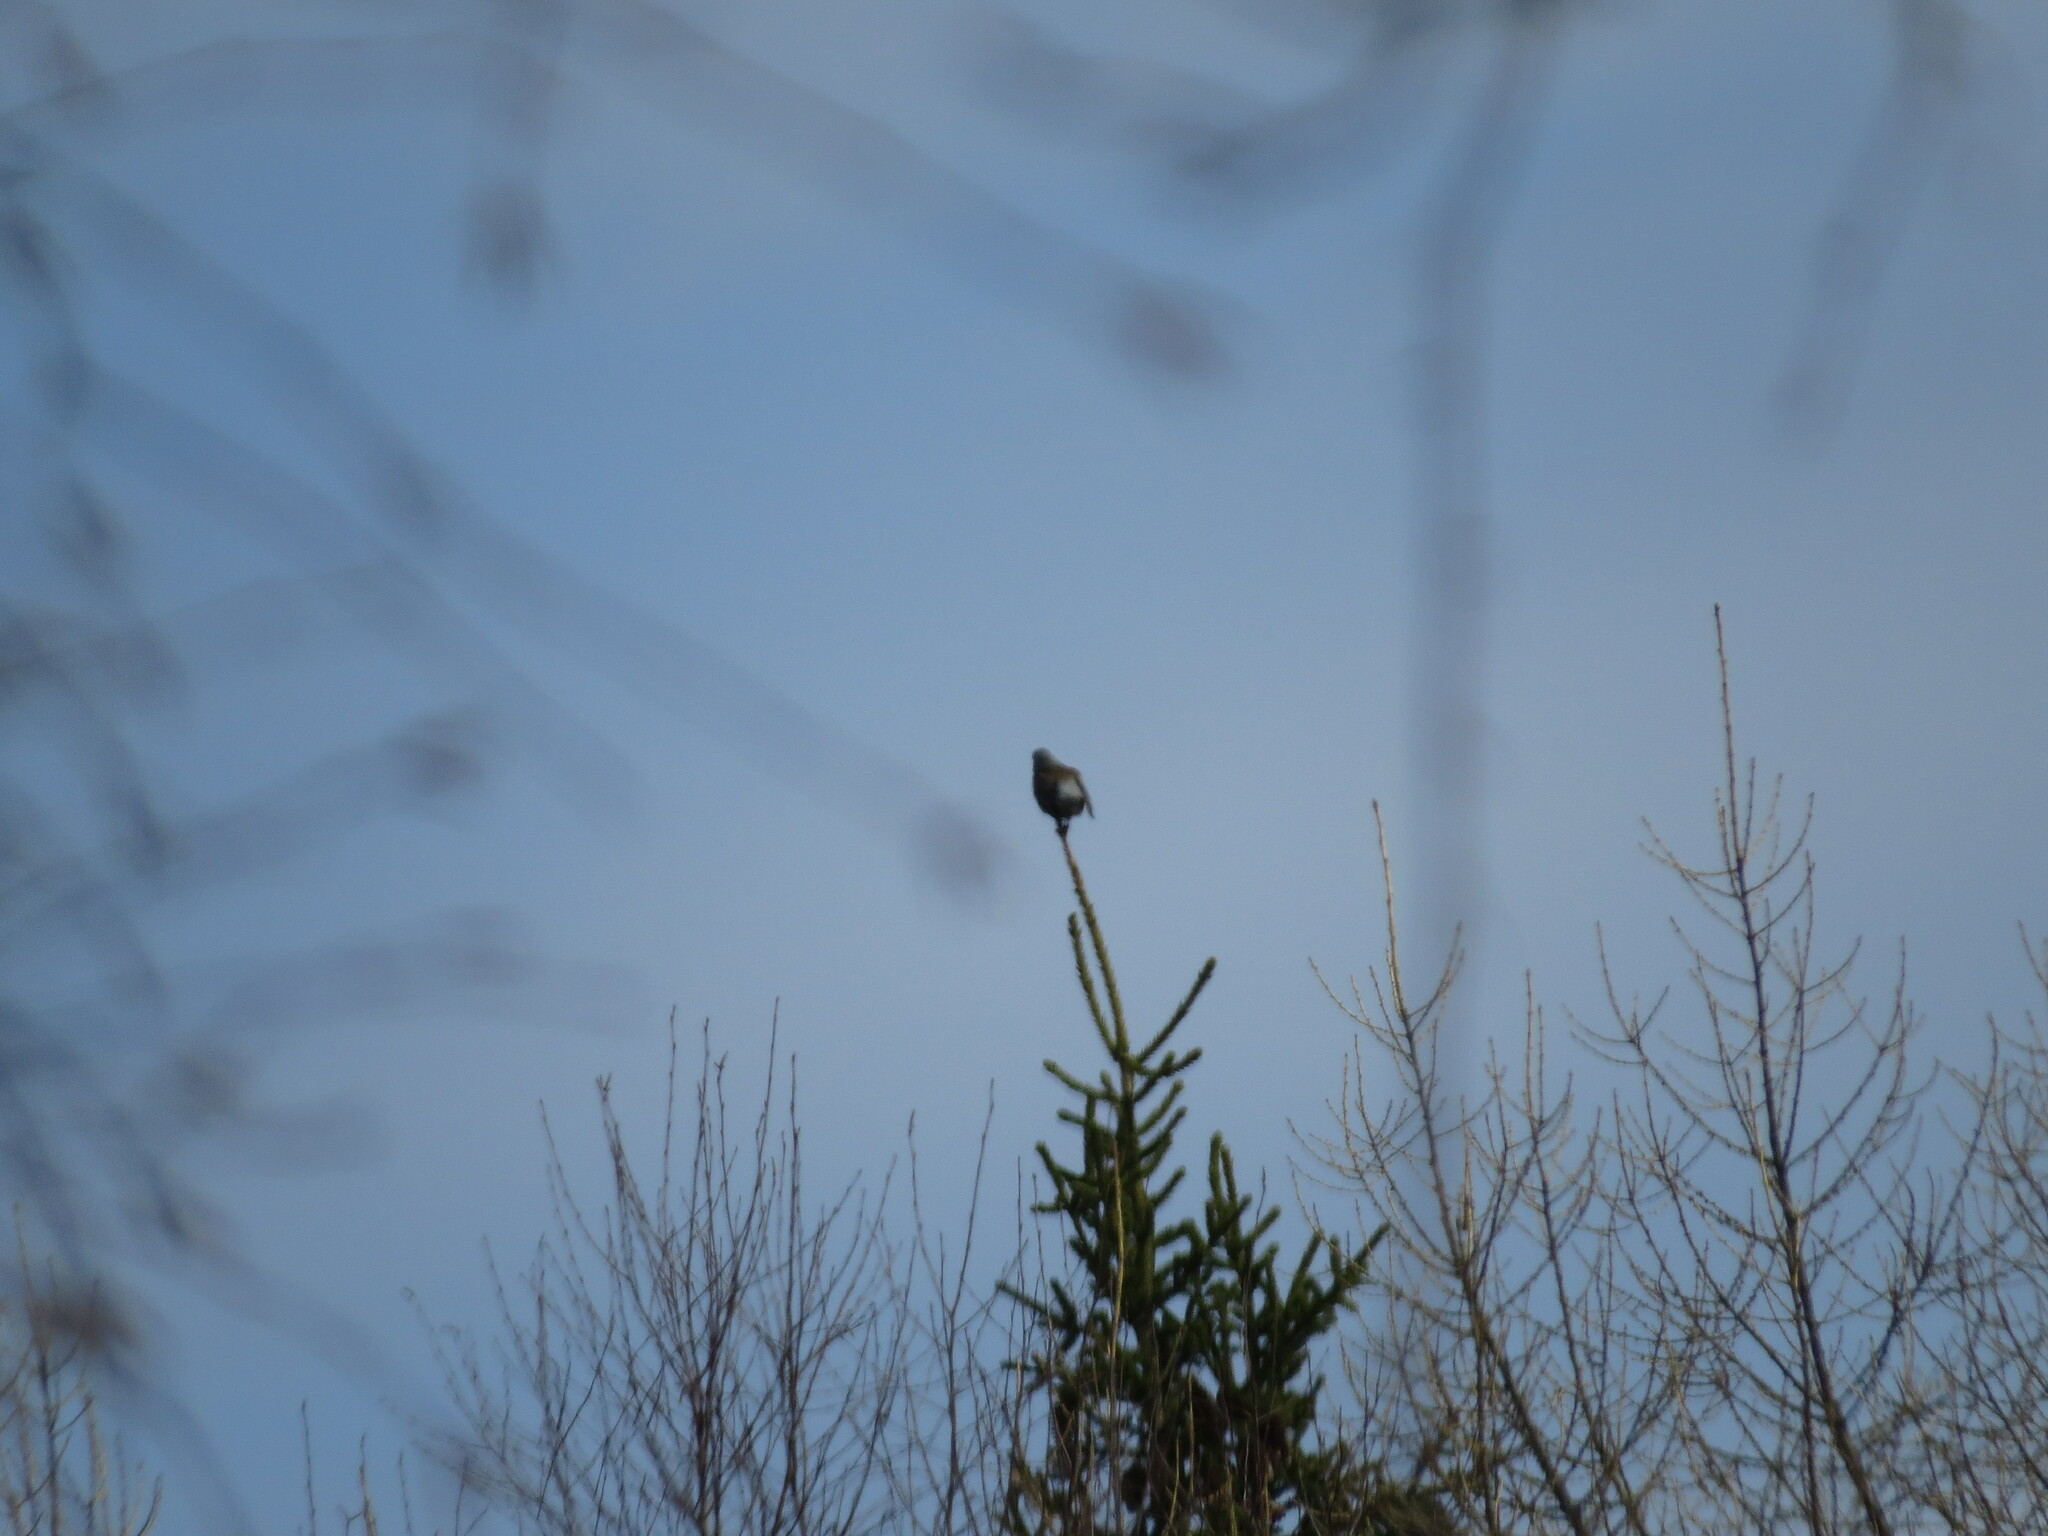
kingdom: Animalia
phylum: Chordata
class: Aves
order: Passeriformes
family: Turdidae
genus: Turdus
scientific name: Turdus pilaris
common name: Fieldfare
